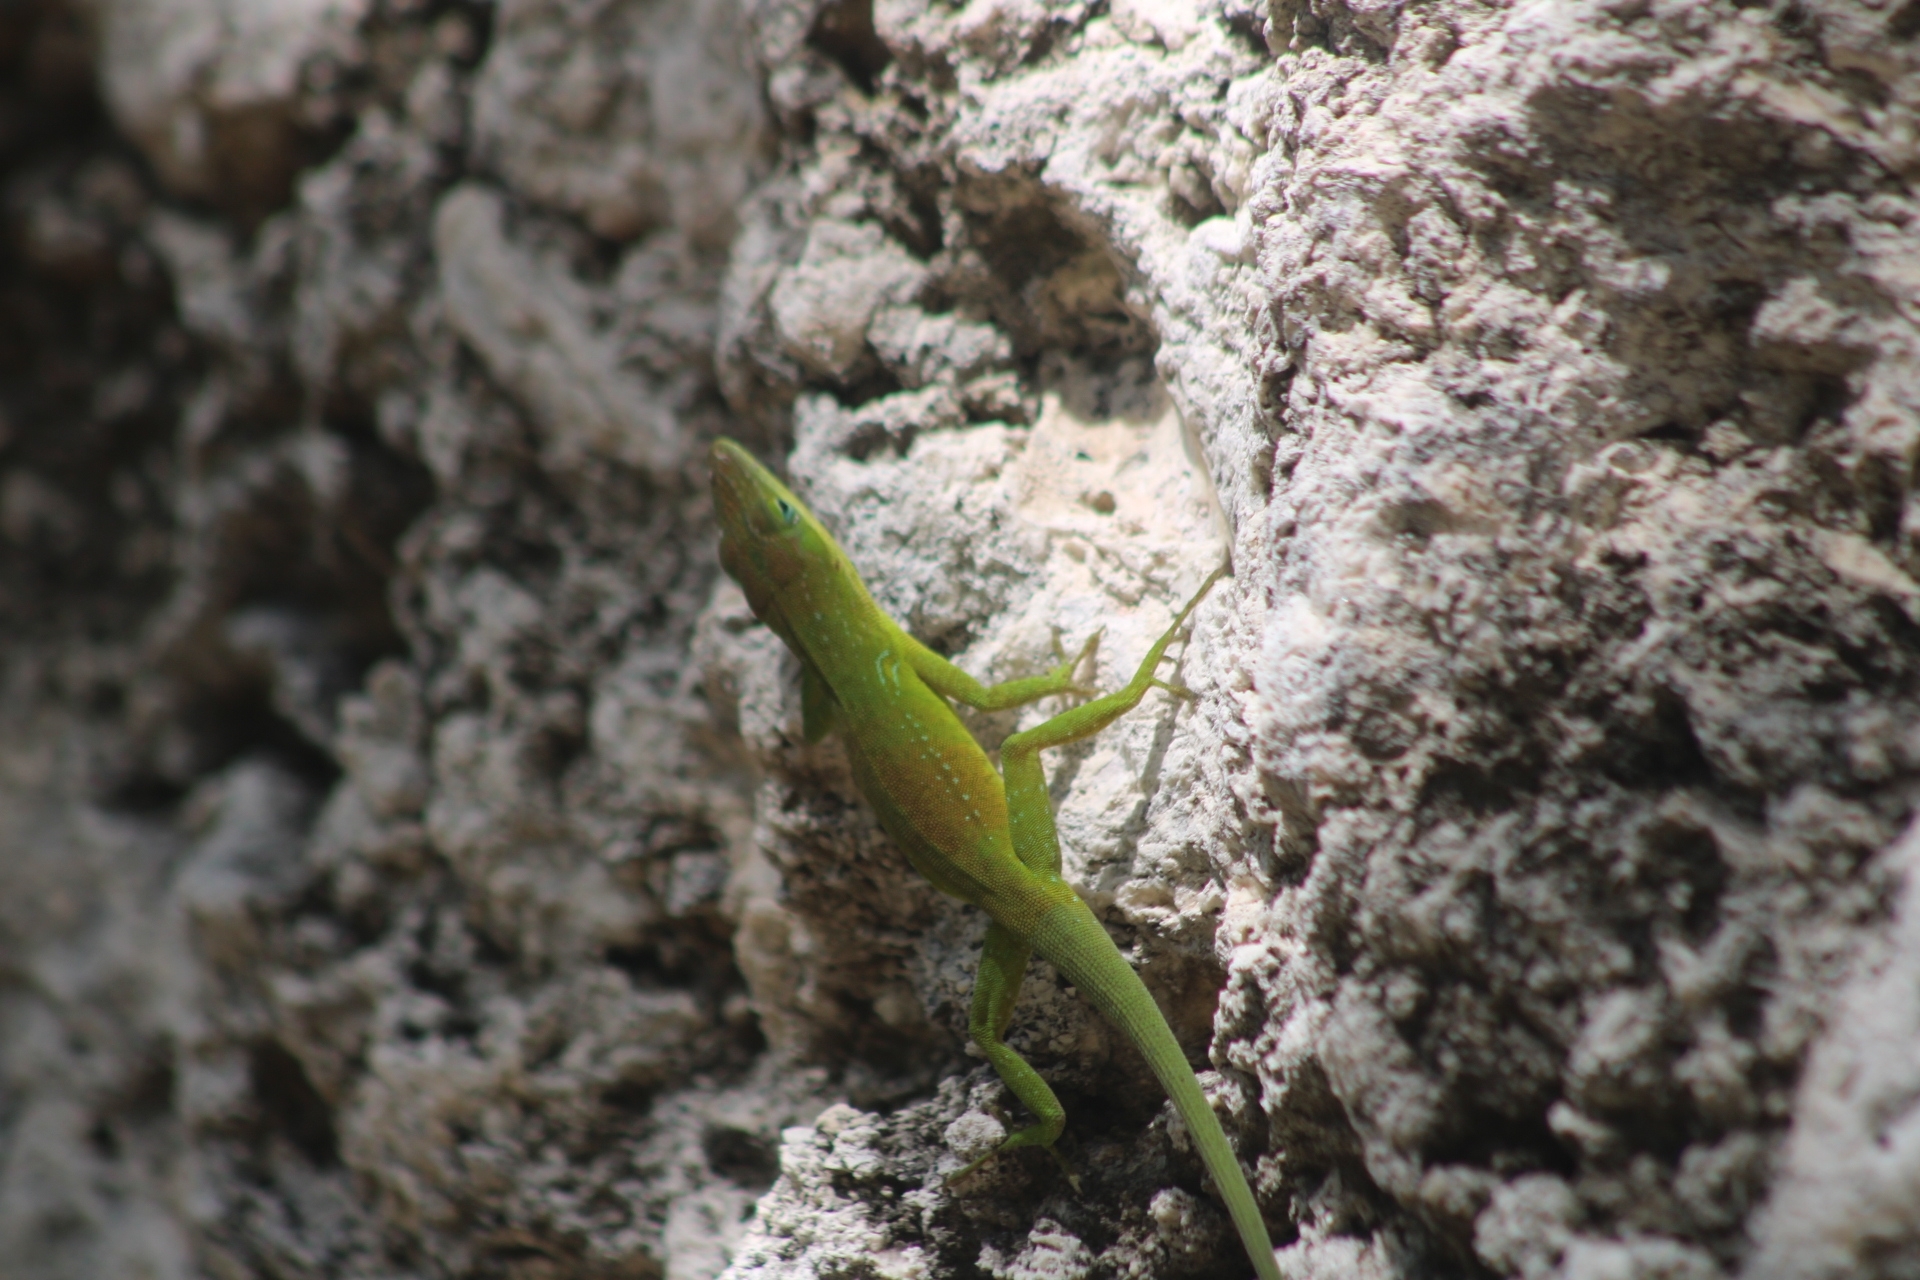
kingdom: Animalia
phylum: Chordata
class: Squamata
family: Dactyloidae
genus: Anolis
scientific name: Anolis carolinensis
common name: Green anole
